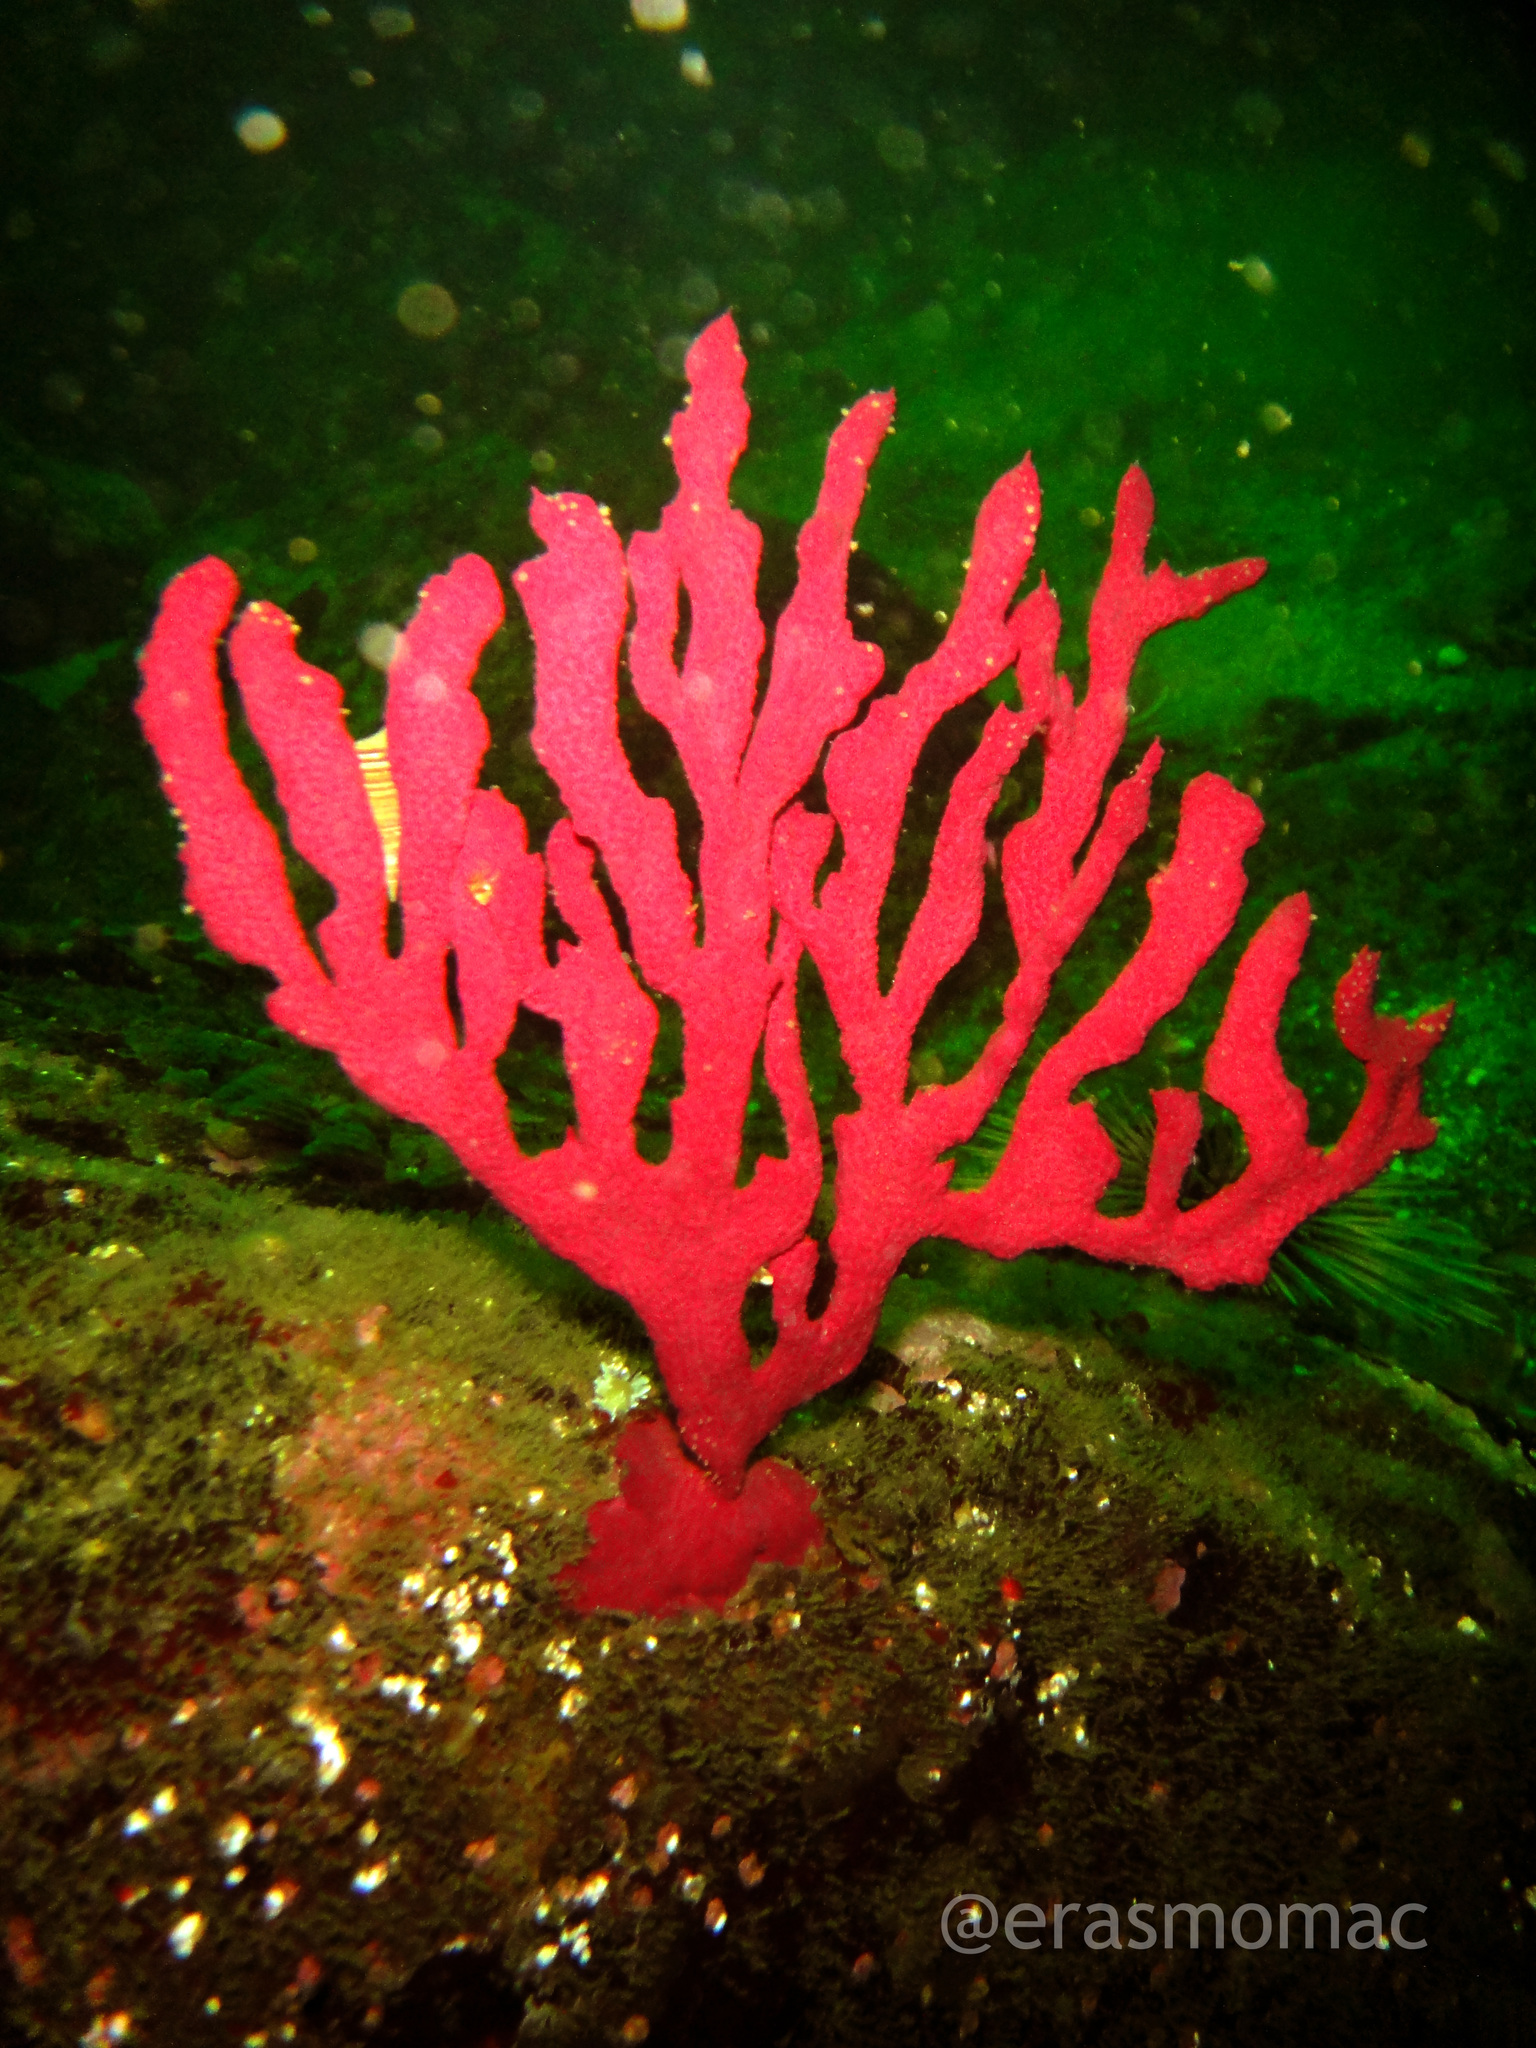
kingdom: Animalia
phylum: Cnidaria
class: Anthozoa
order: Malacalcyonacea
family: Gorgoniidae
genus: Phycogorgia
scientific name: Phycogorgia fucata
